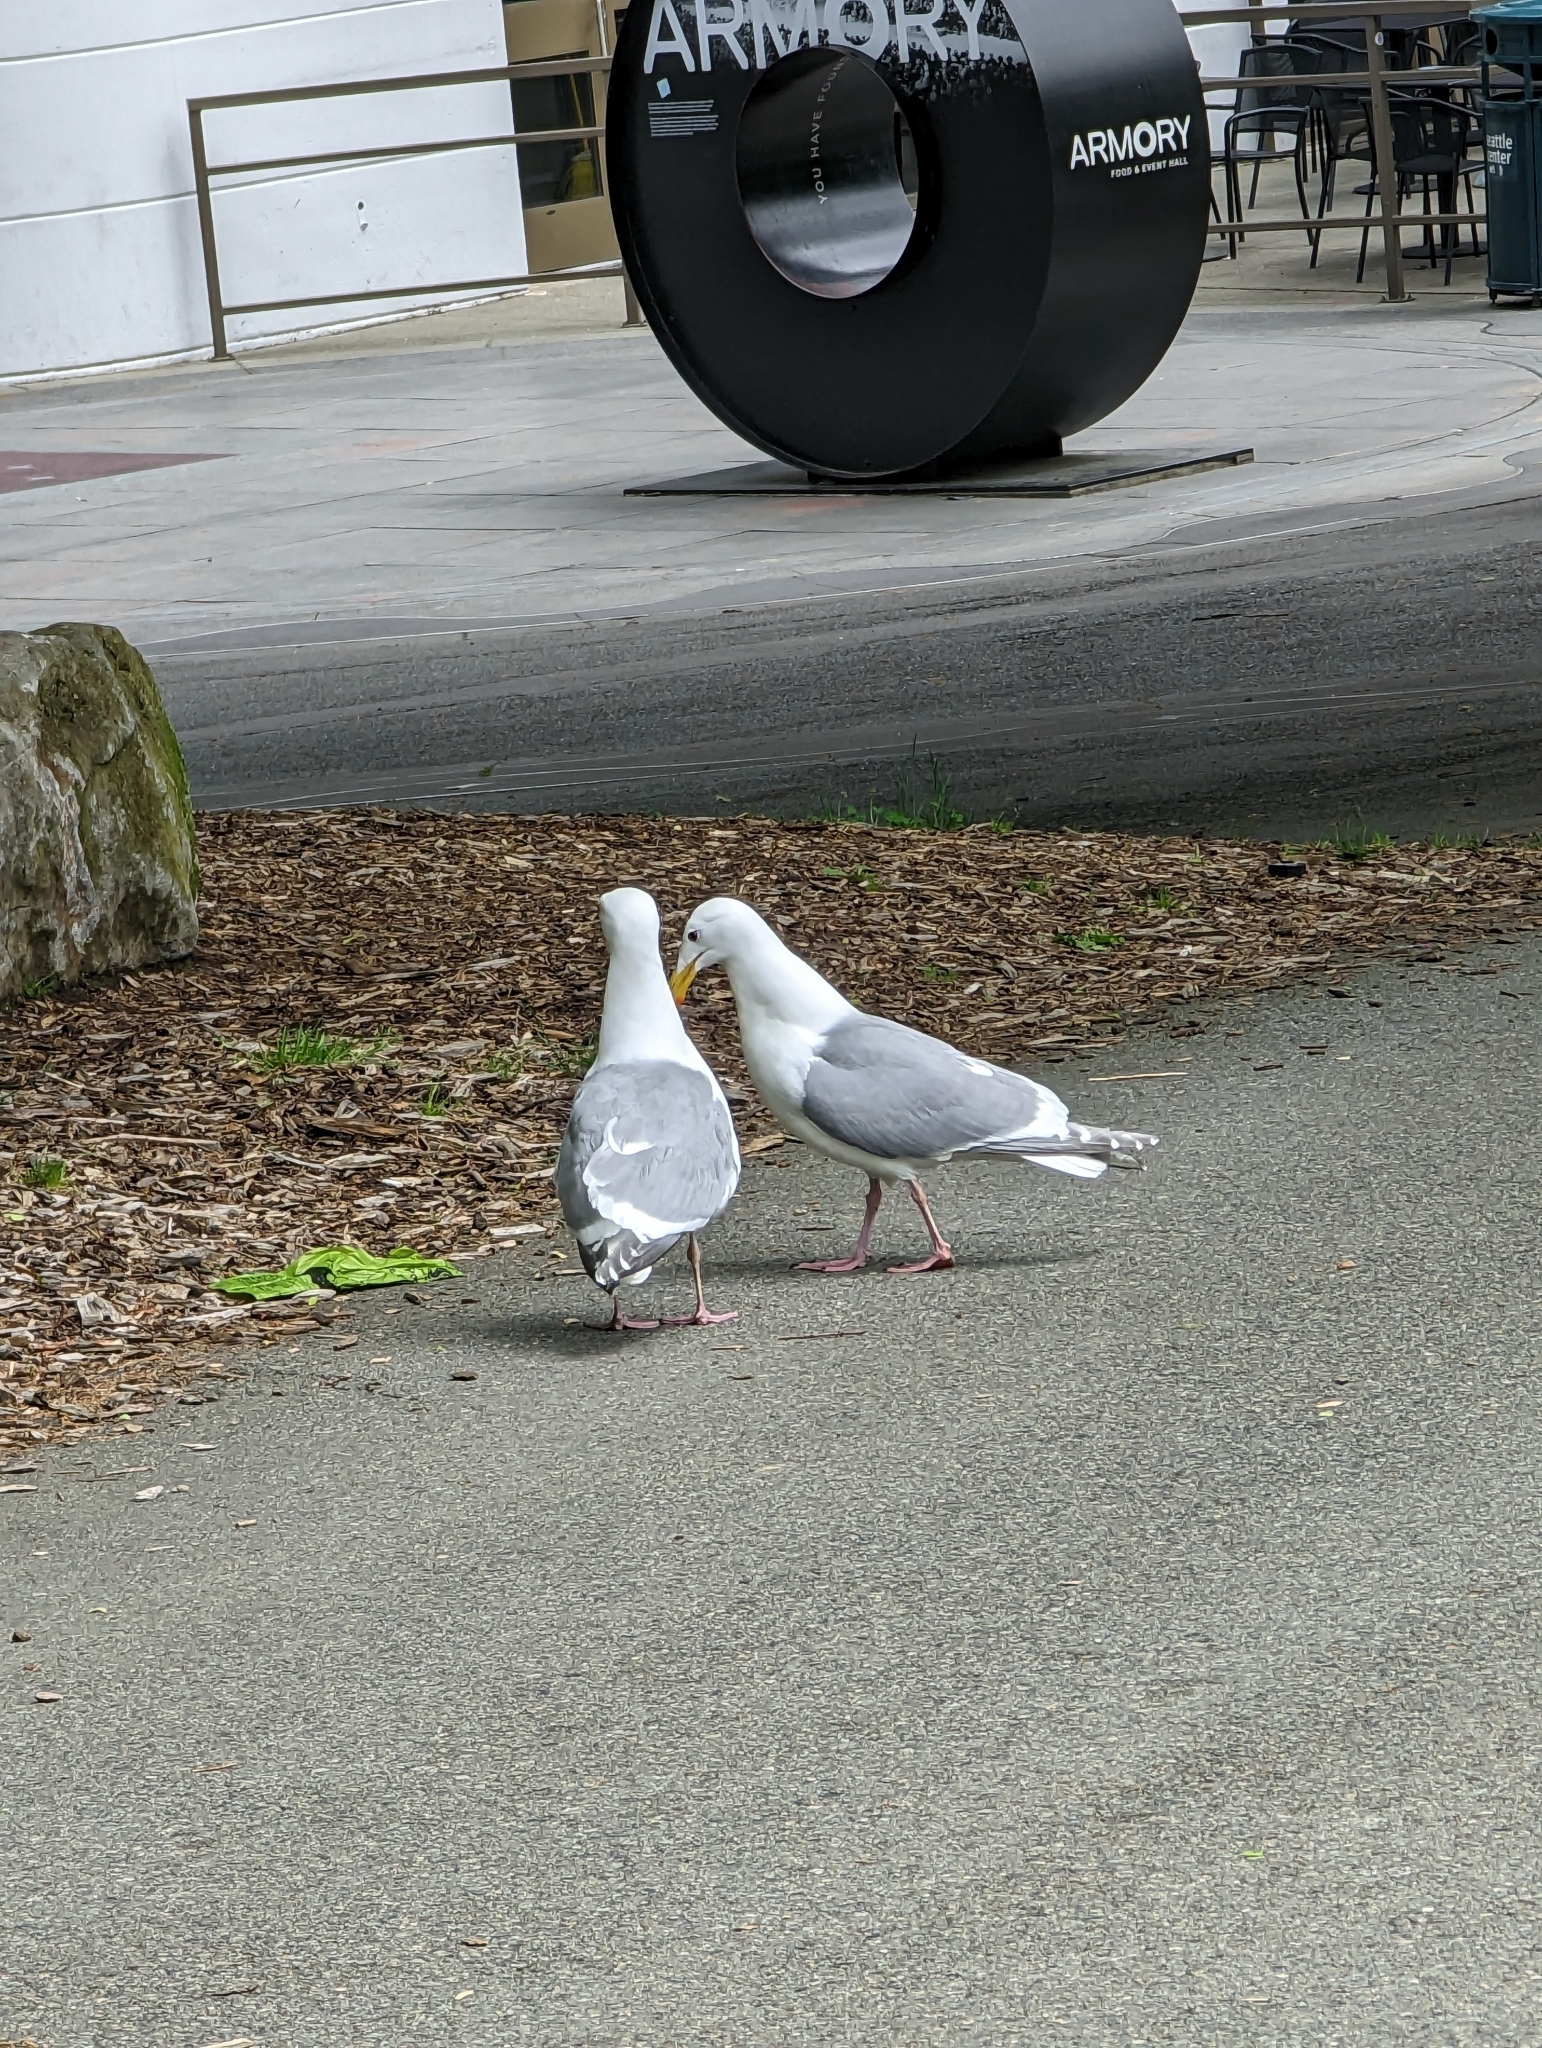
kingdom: Animalia
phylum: Chordata
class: Aves
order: Charadriiformes
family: Laridae
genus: Larus
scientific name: Larus
